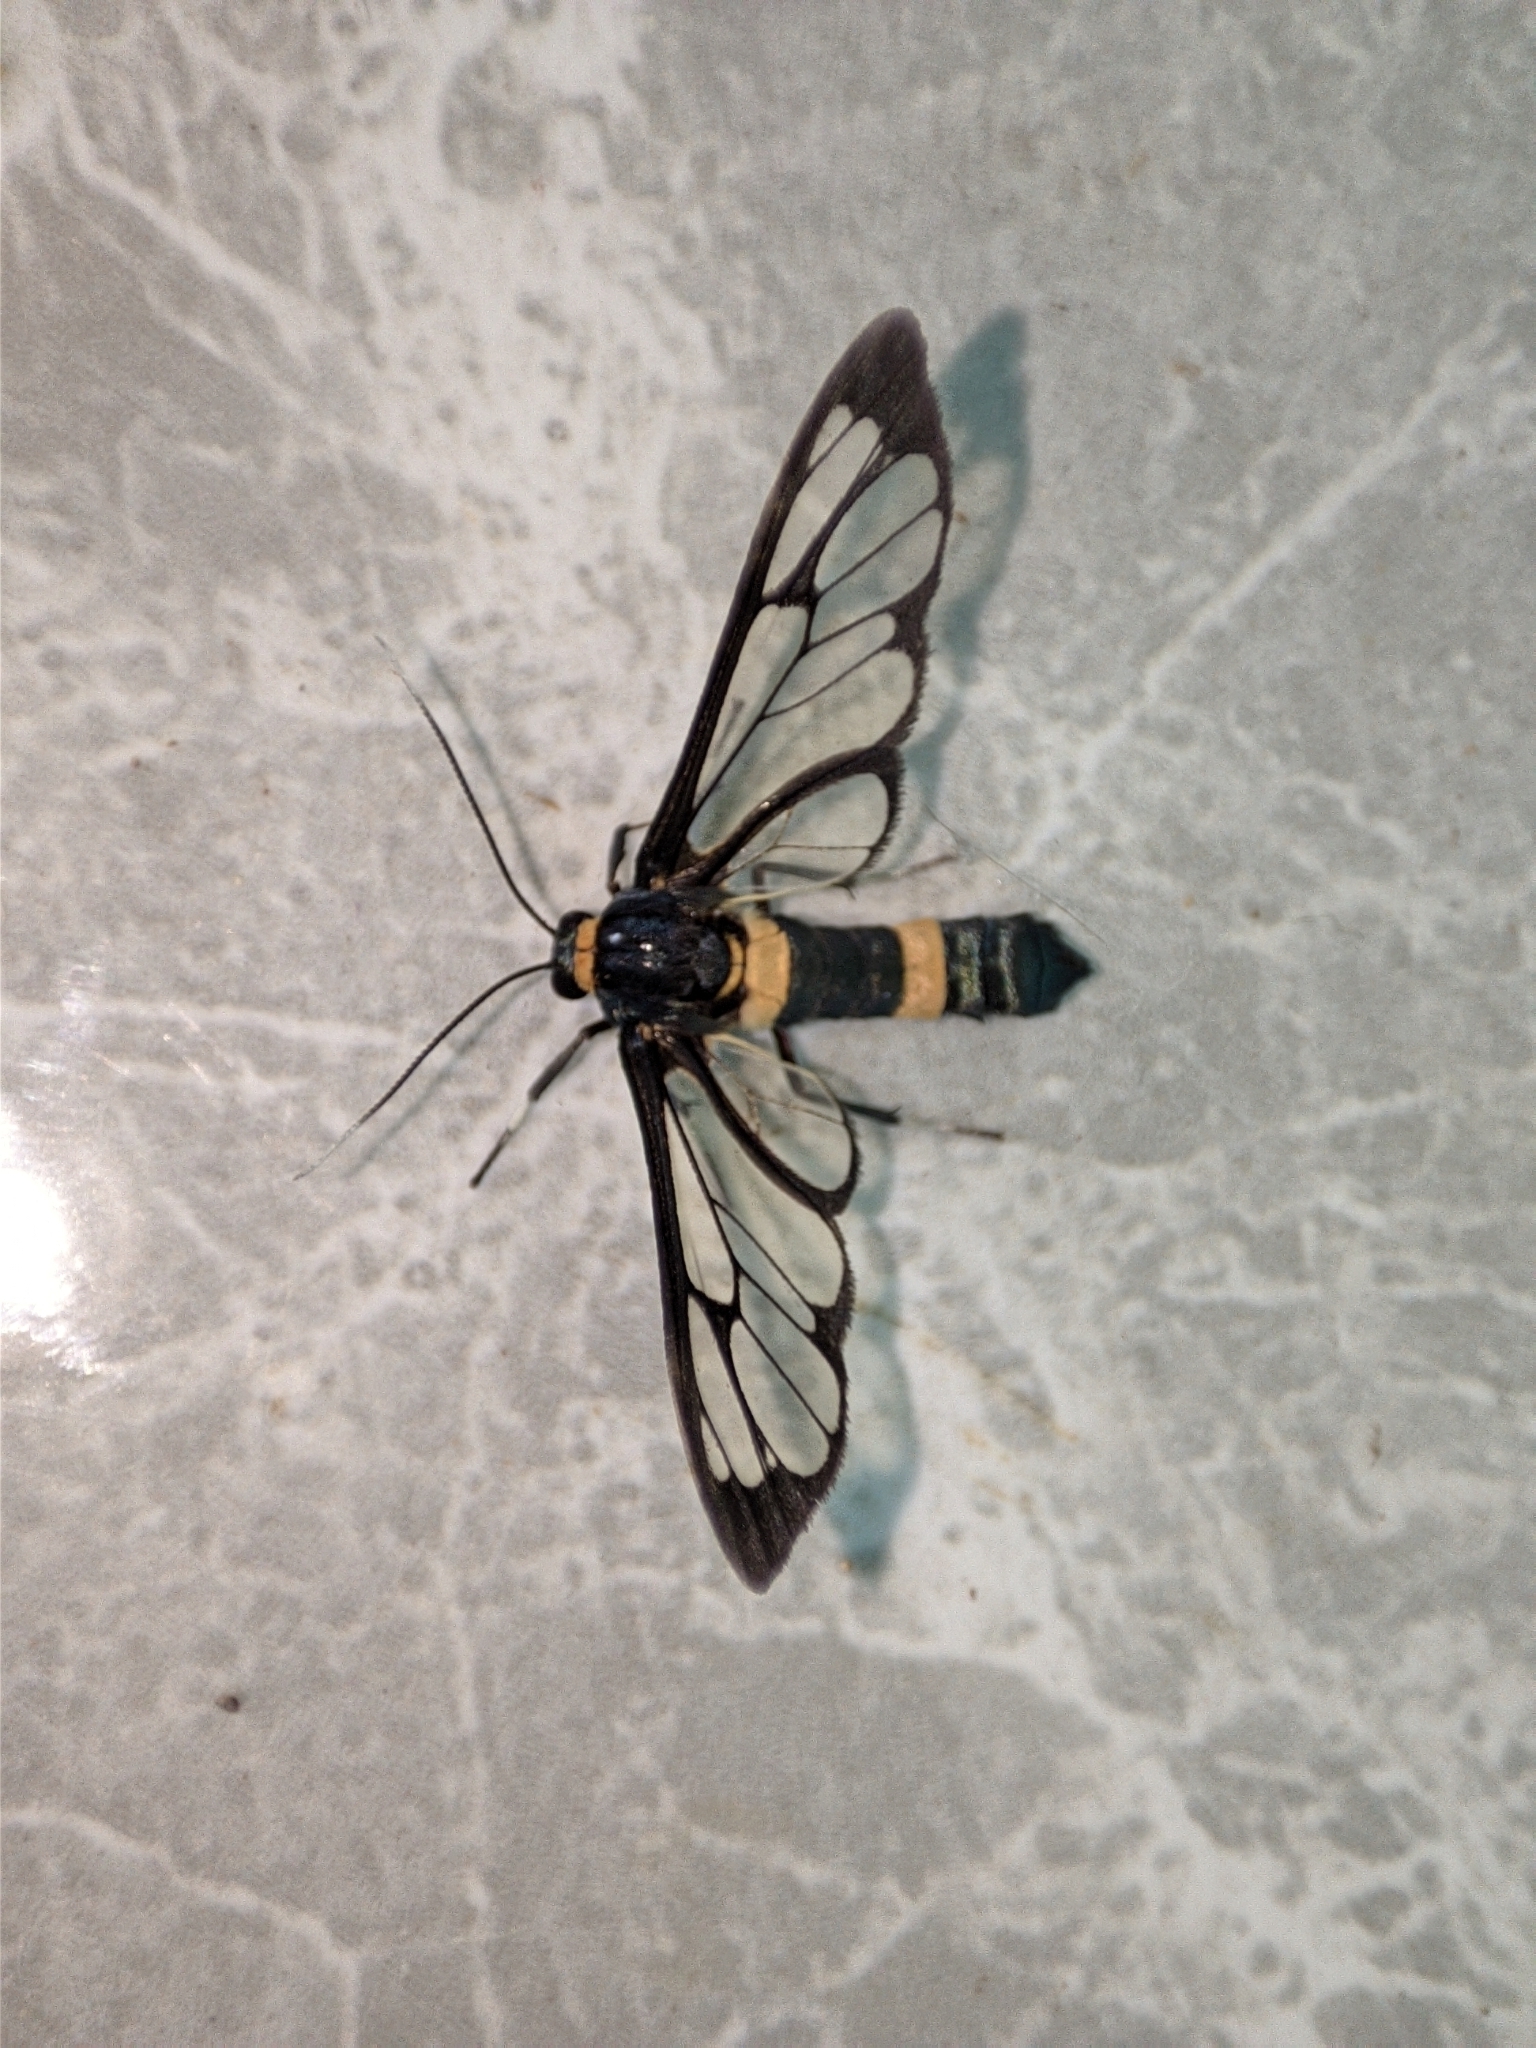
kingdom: Animalia
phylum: Arthropoda
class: Insecta
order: Lepidoptera
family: Erebidae
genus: Syntomoides
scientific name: Syntomoides imaon
